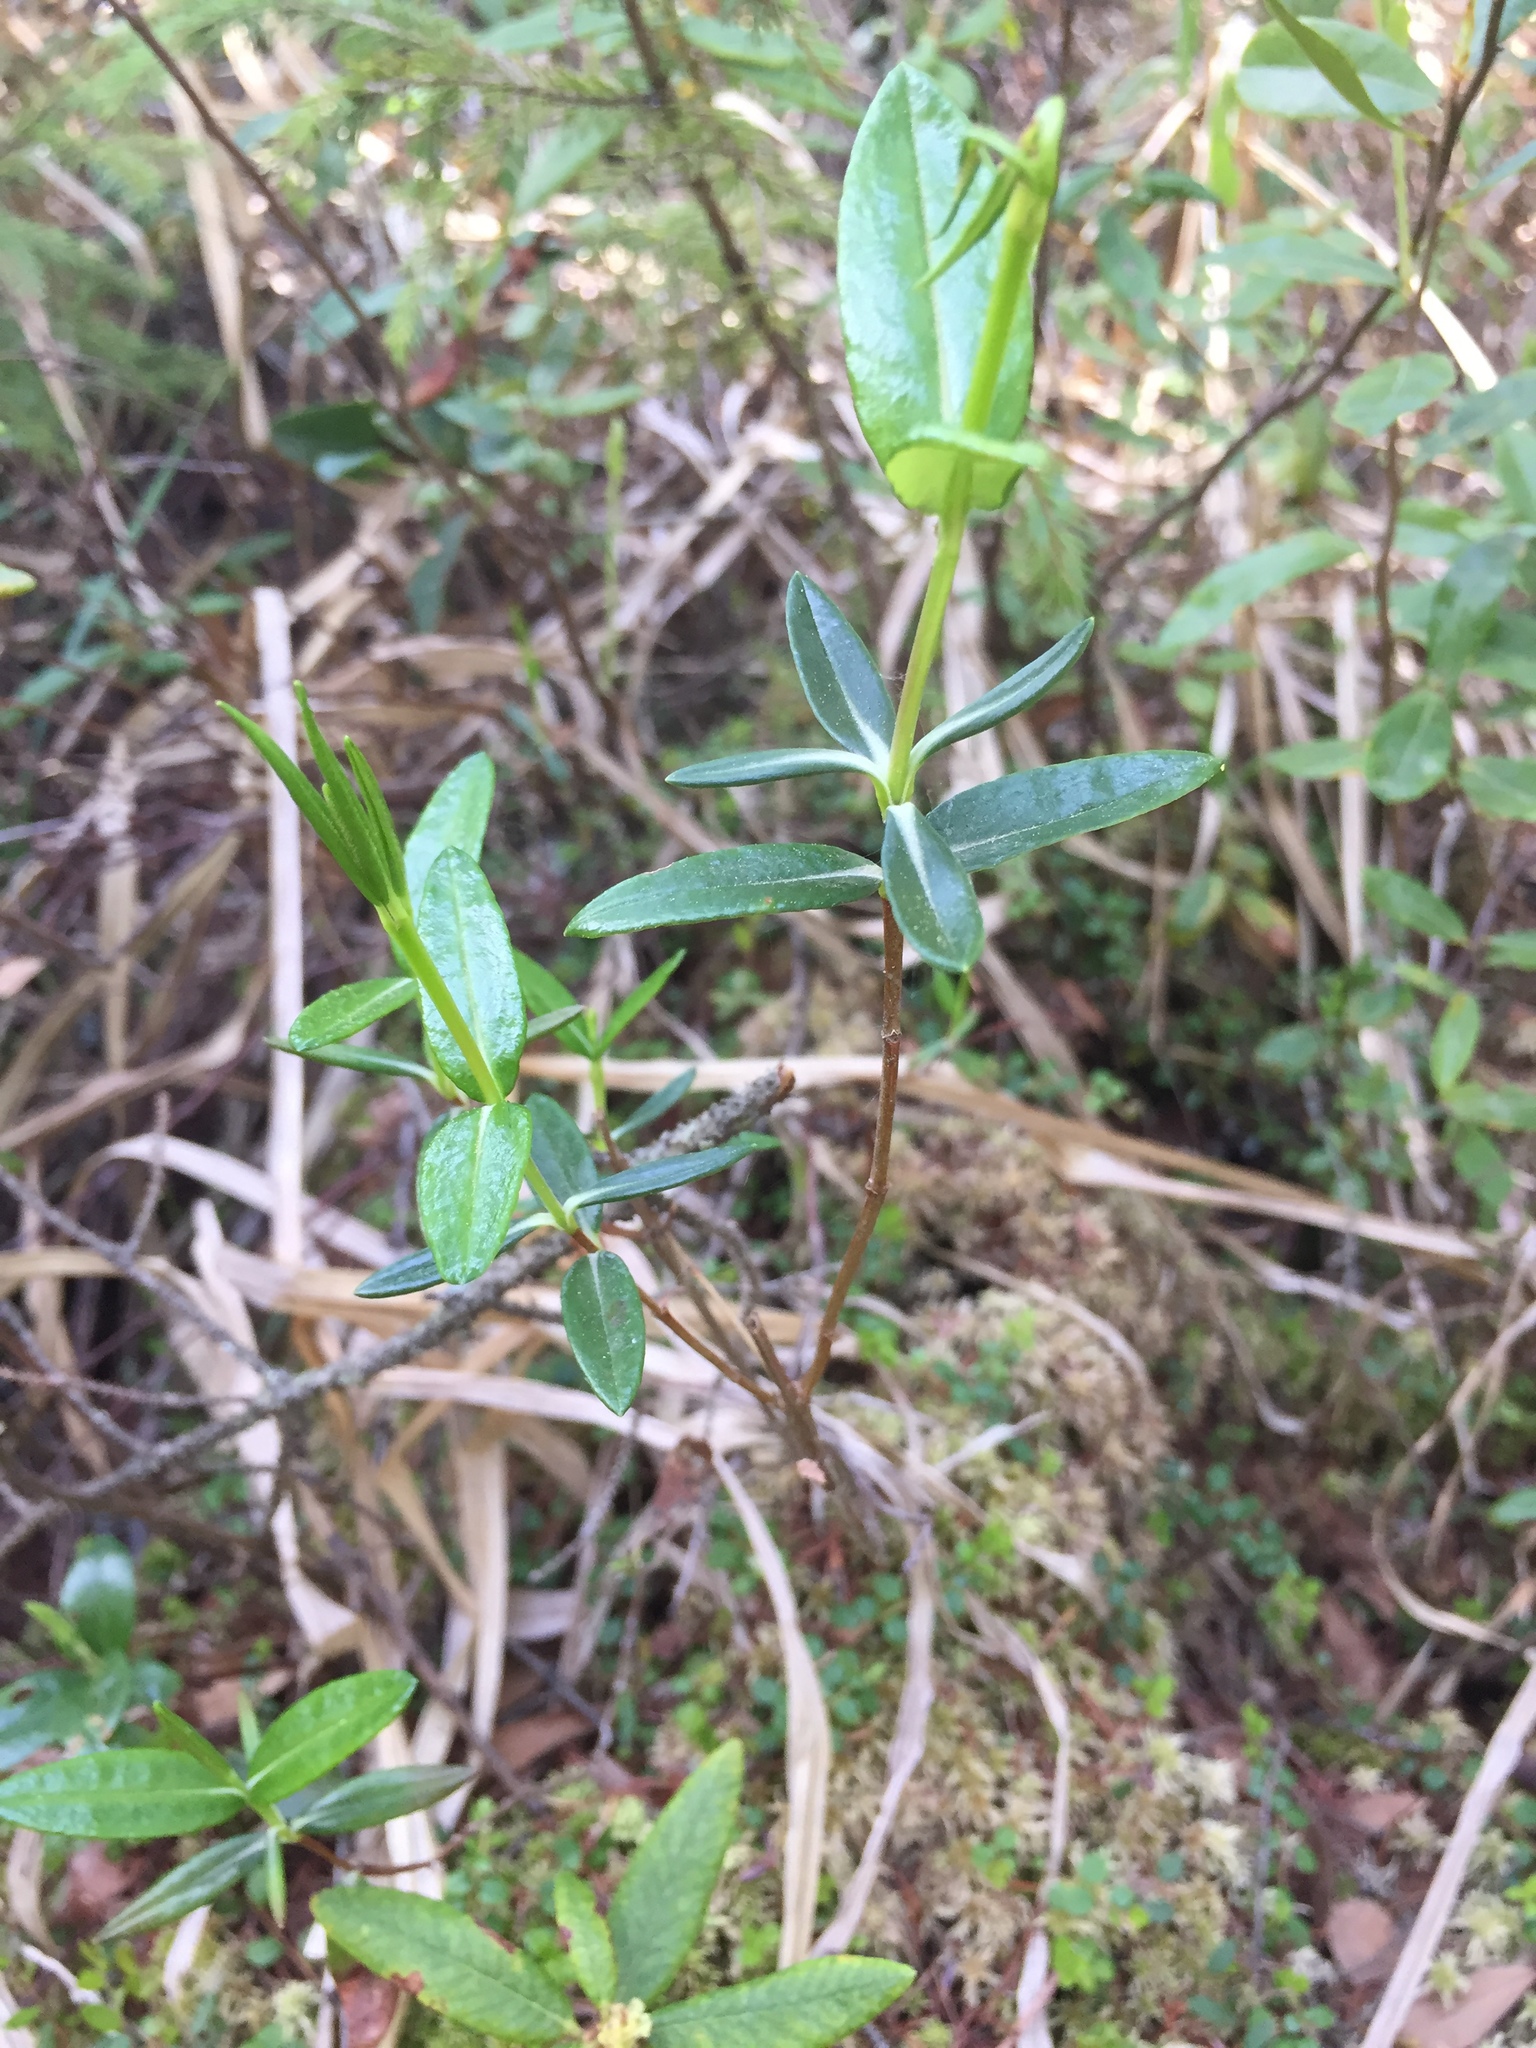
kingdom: Plantae
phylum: Tracheophyta
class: Magnoliopsida
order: Ericales
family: Ericaceae
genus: Kalmia
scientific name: Kalmia polifolia
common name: Bog-laurel
